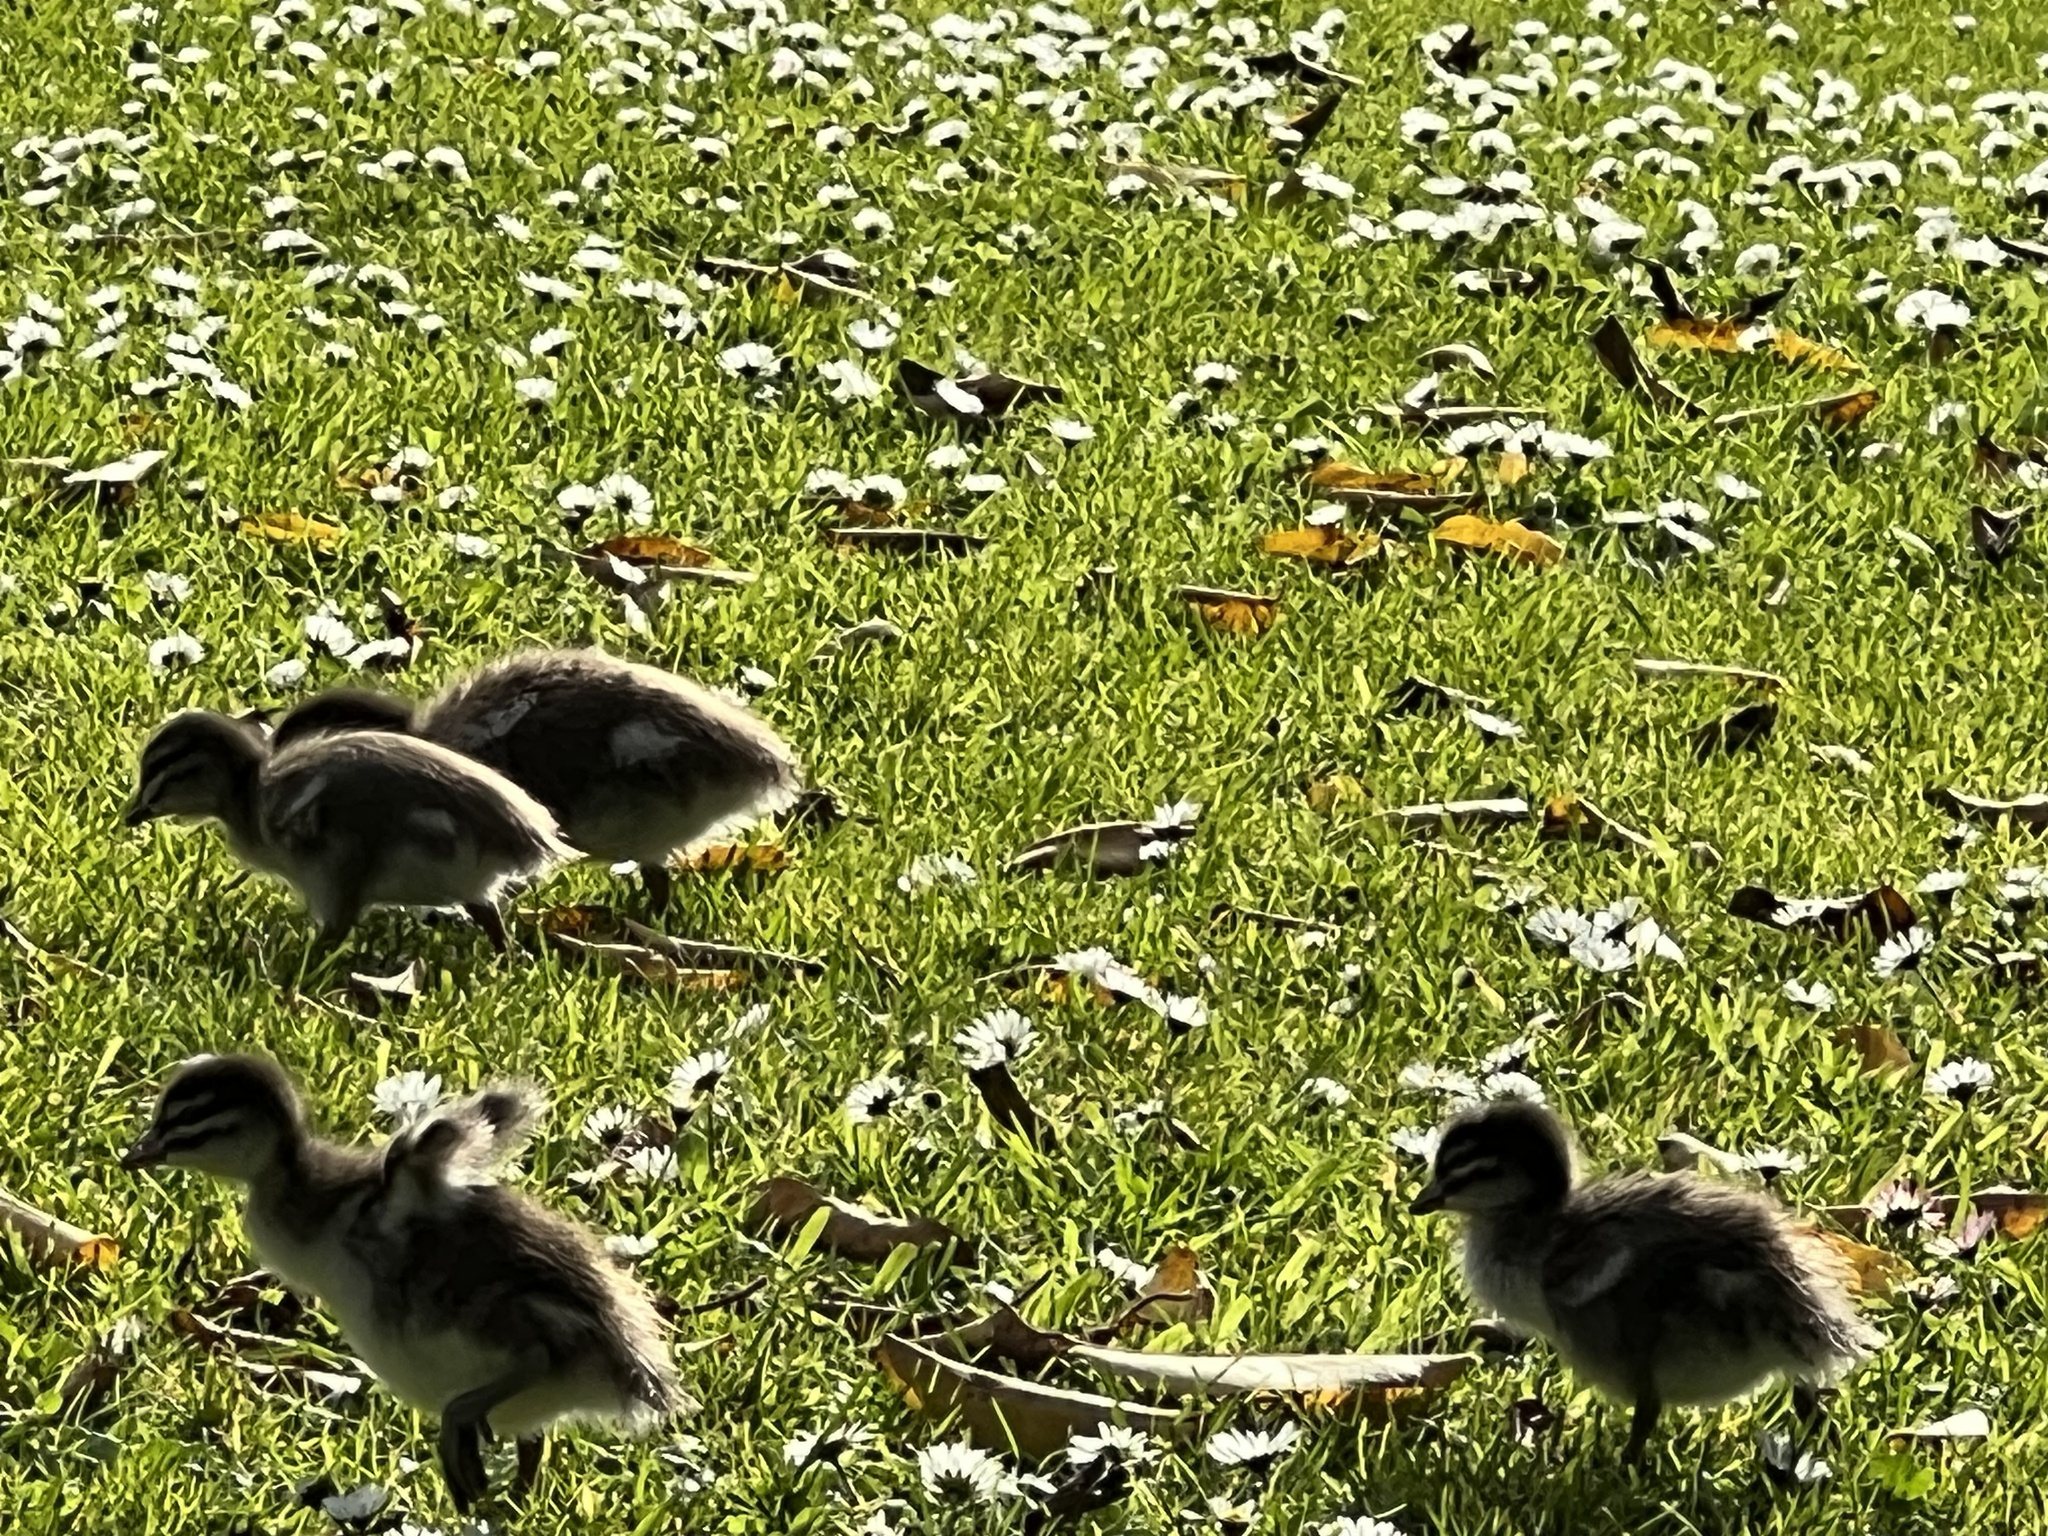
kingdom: Animalia
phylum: Chordata
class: Aves
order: Anseriformes
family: Anatidae
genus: Chenonetta
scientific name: Chenonetta jubata
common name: Maned duck
